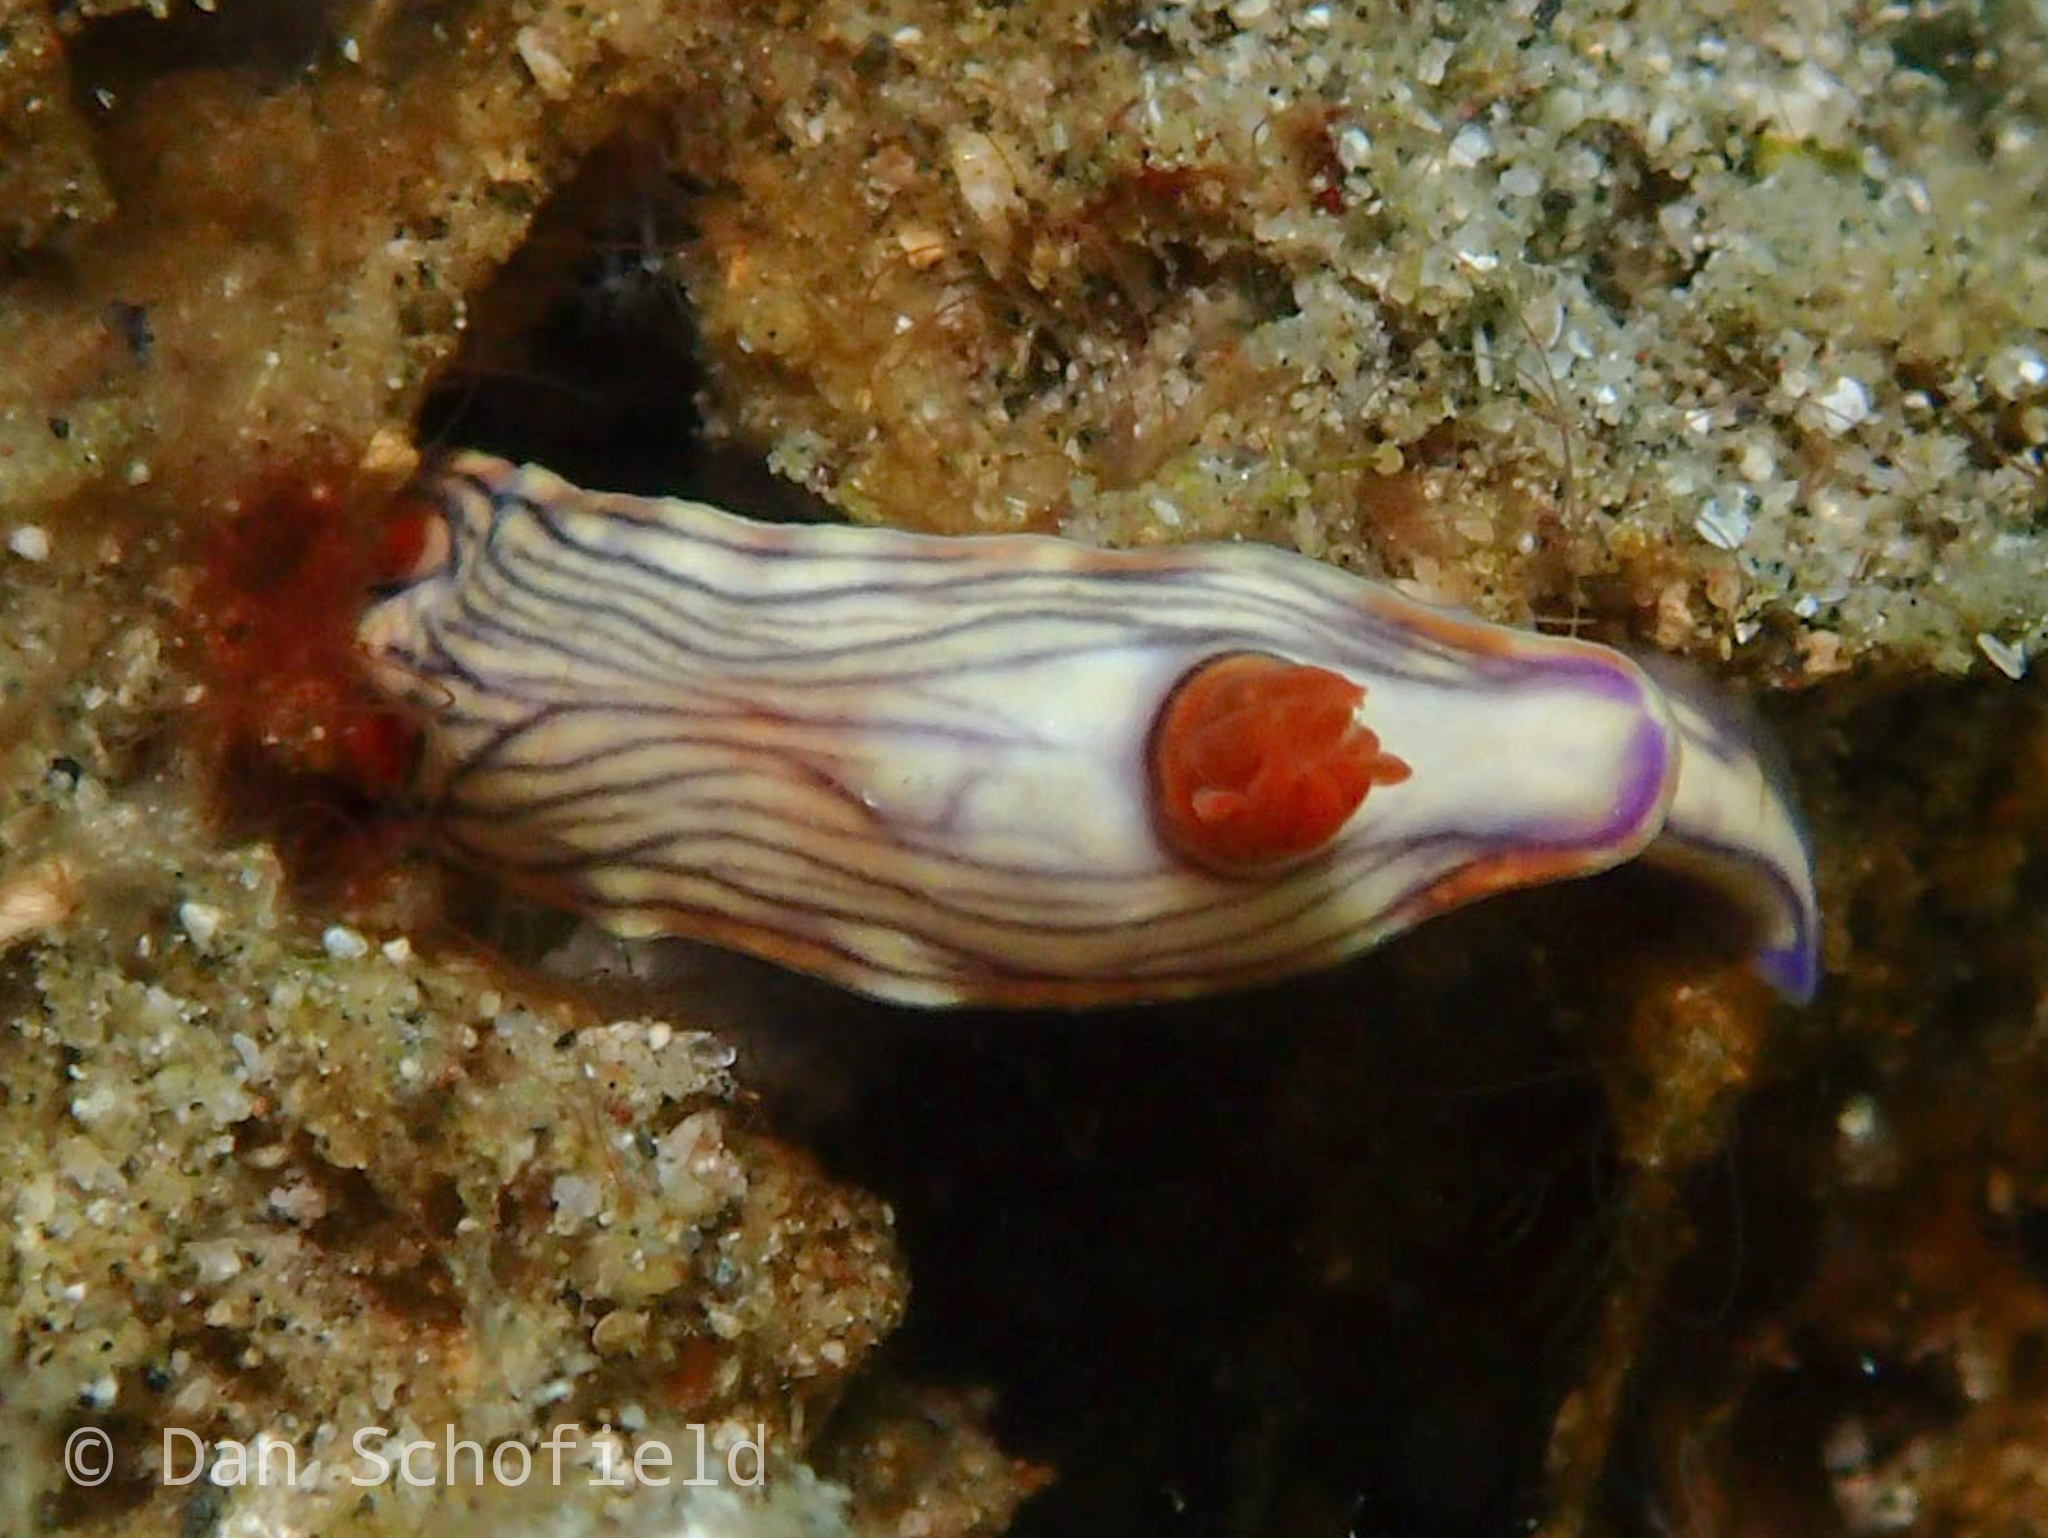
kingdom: Animalia
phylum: Mollusca
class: Gastropoda
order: Nudibranchia
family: Chromodorididae
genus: Hypselodoris
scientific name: Hypselodoris zephyra
